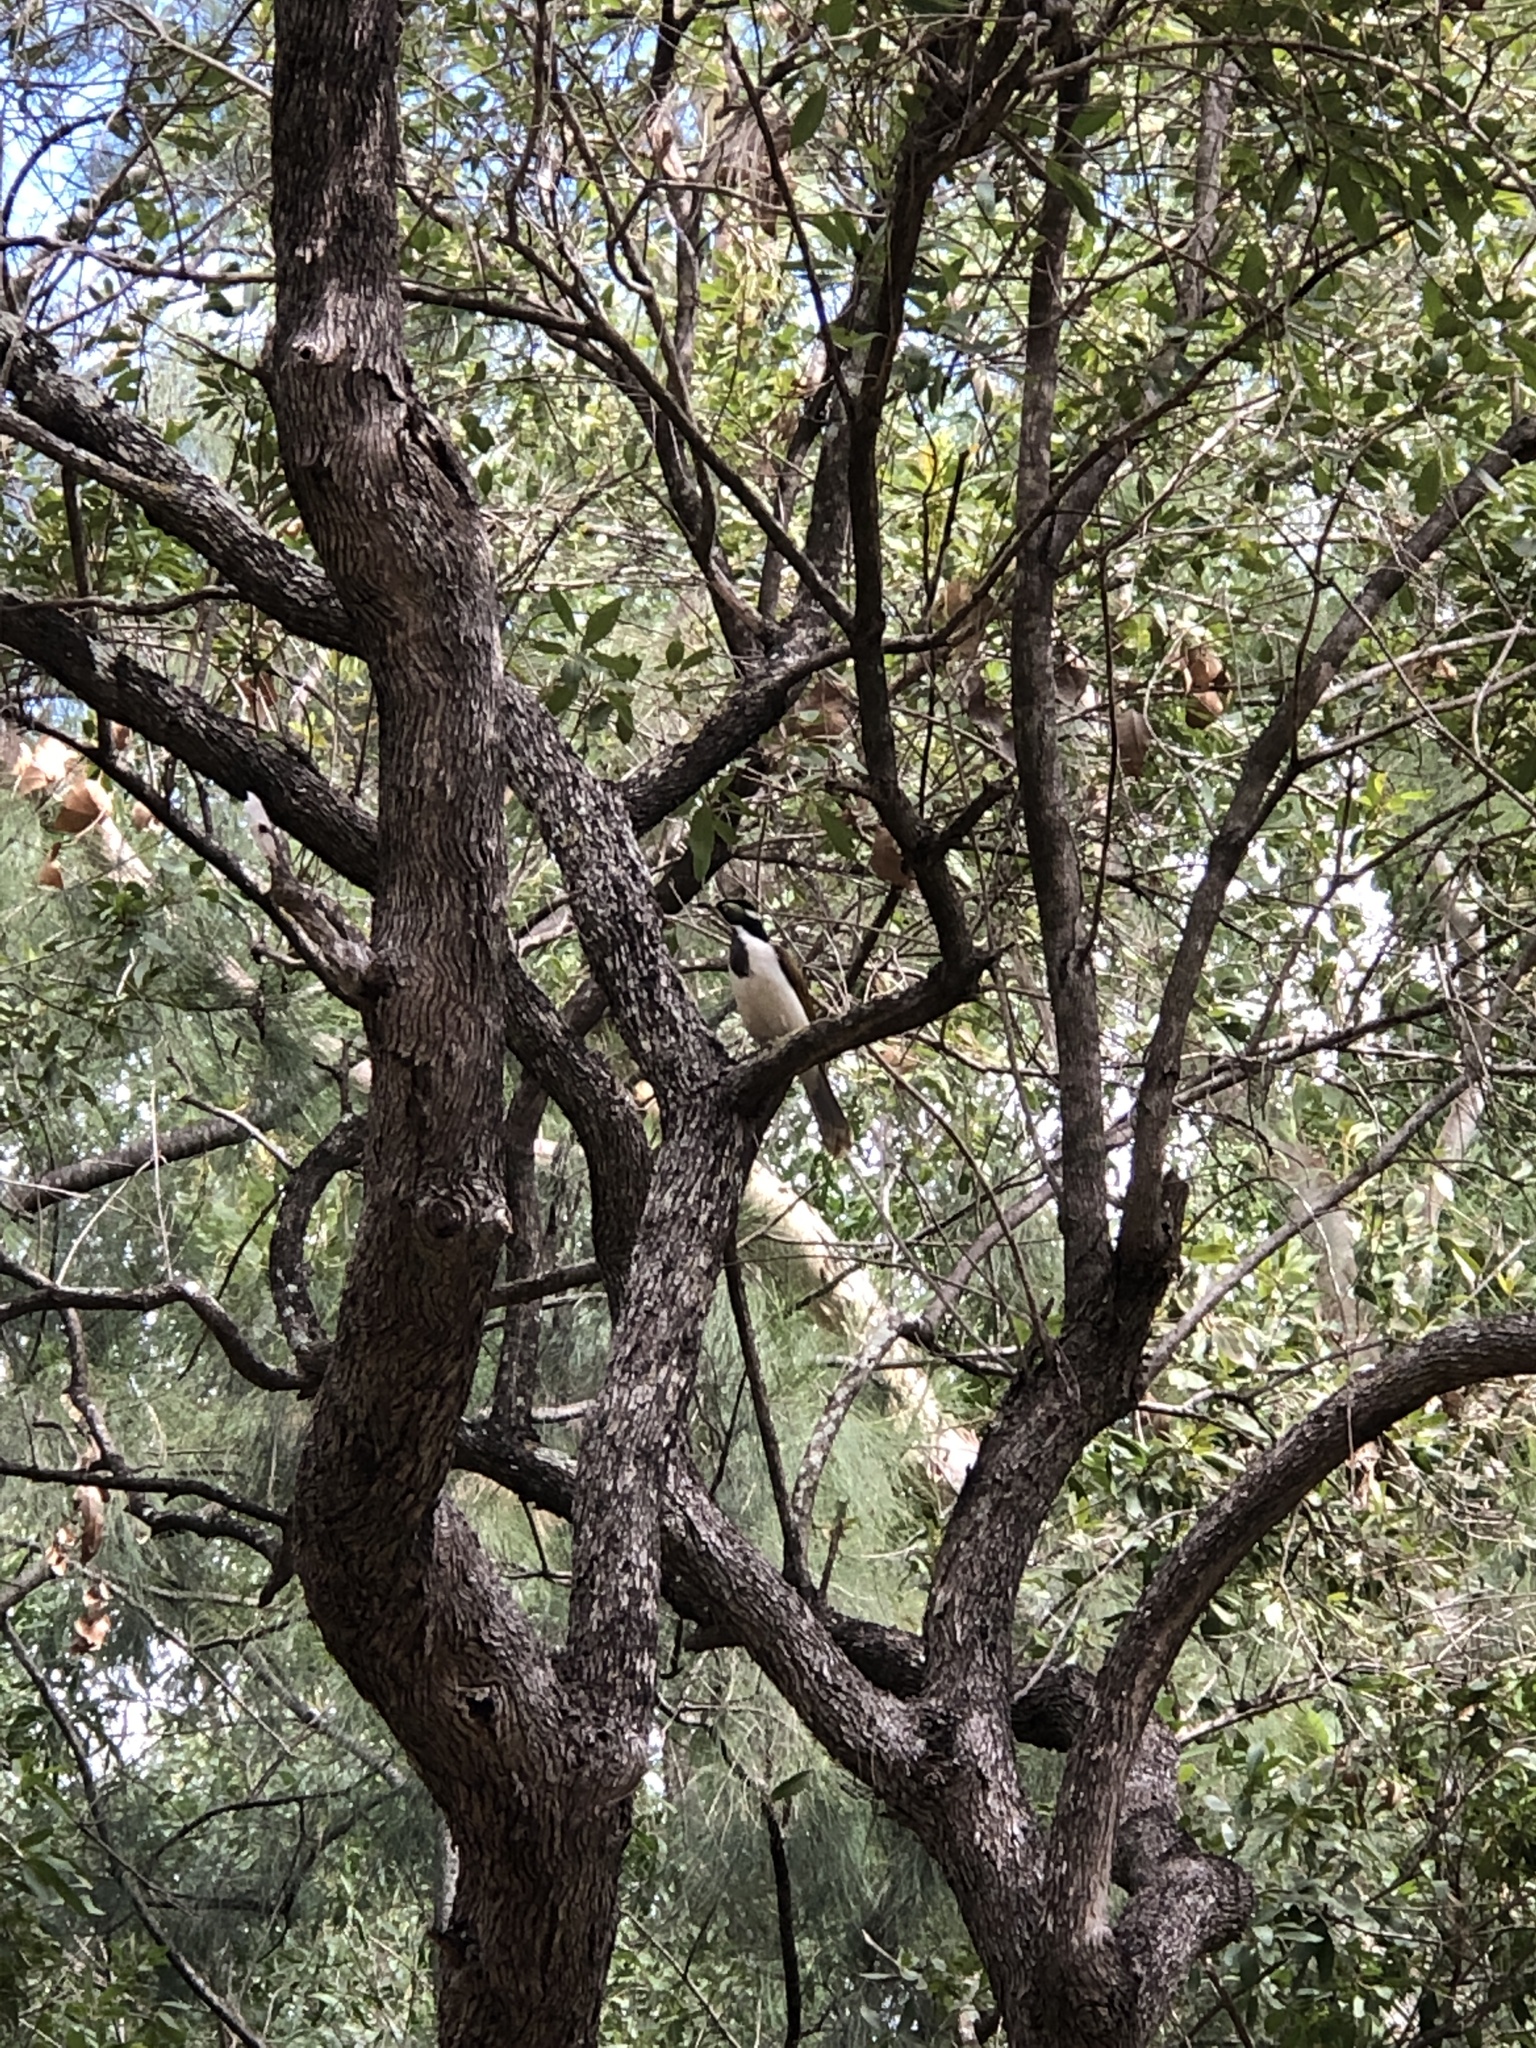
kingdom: Animalia
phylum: Chordata
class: Aves
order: Passeriformes
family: Meliphagidae
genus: Entomyzon
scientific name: Entomyzon cyanotis
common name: Blue-faced honeyeater
